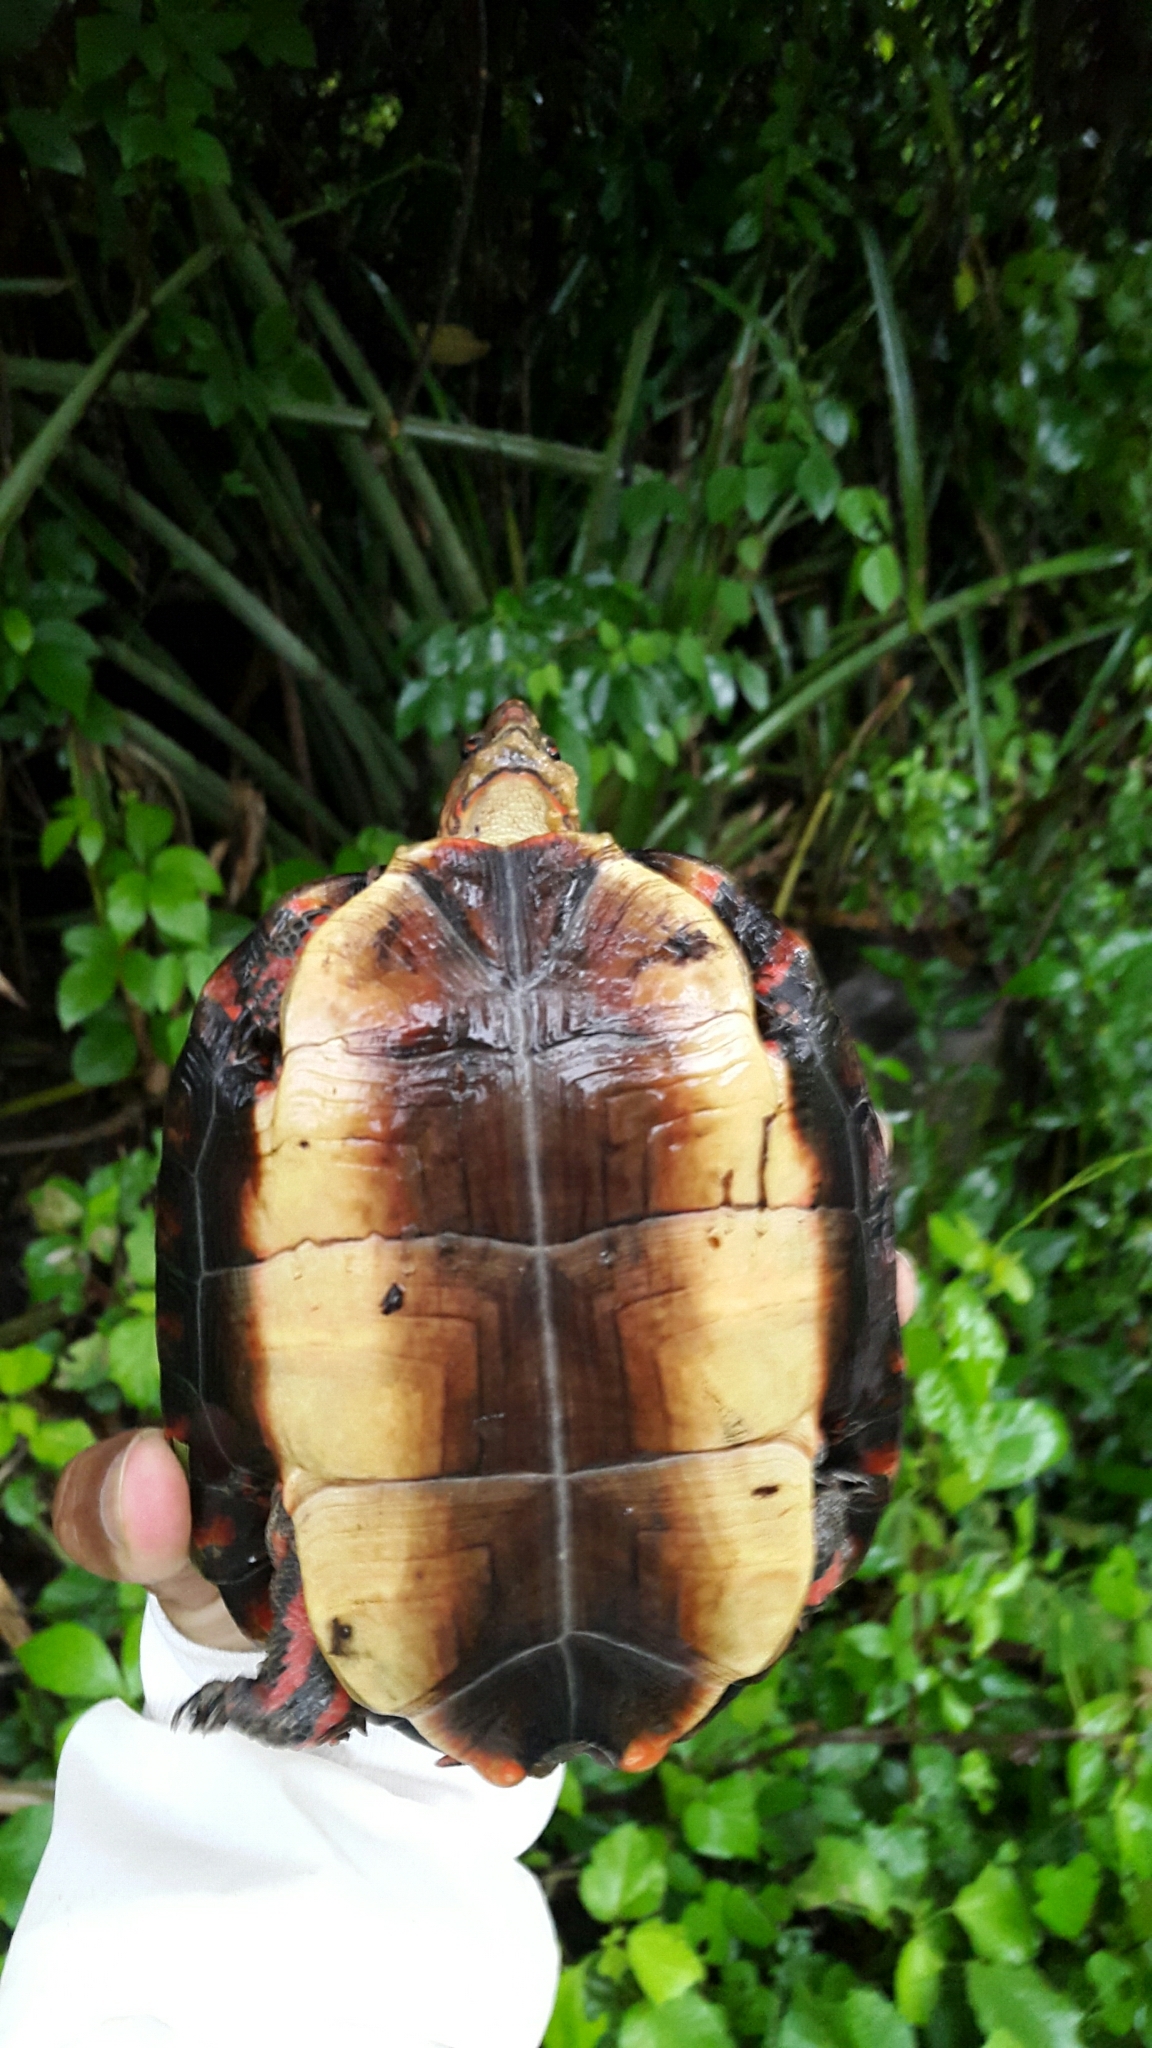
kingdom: Animalia
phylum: Chordata
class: Testudines
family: Geoemydidae
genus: Rhinoclemmys
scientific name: Rhinoclemmys pulcherrima
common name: Painted wood turtle
